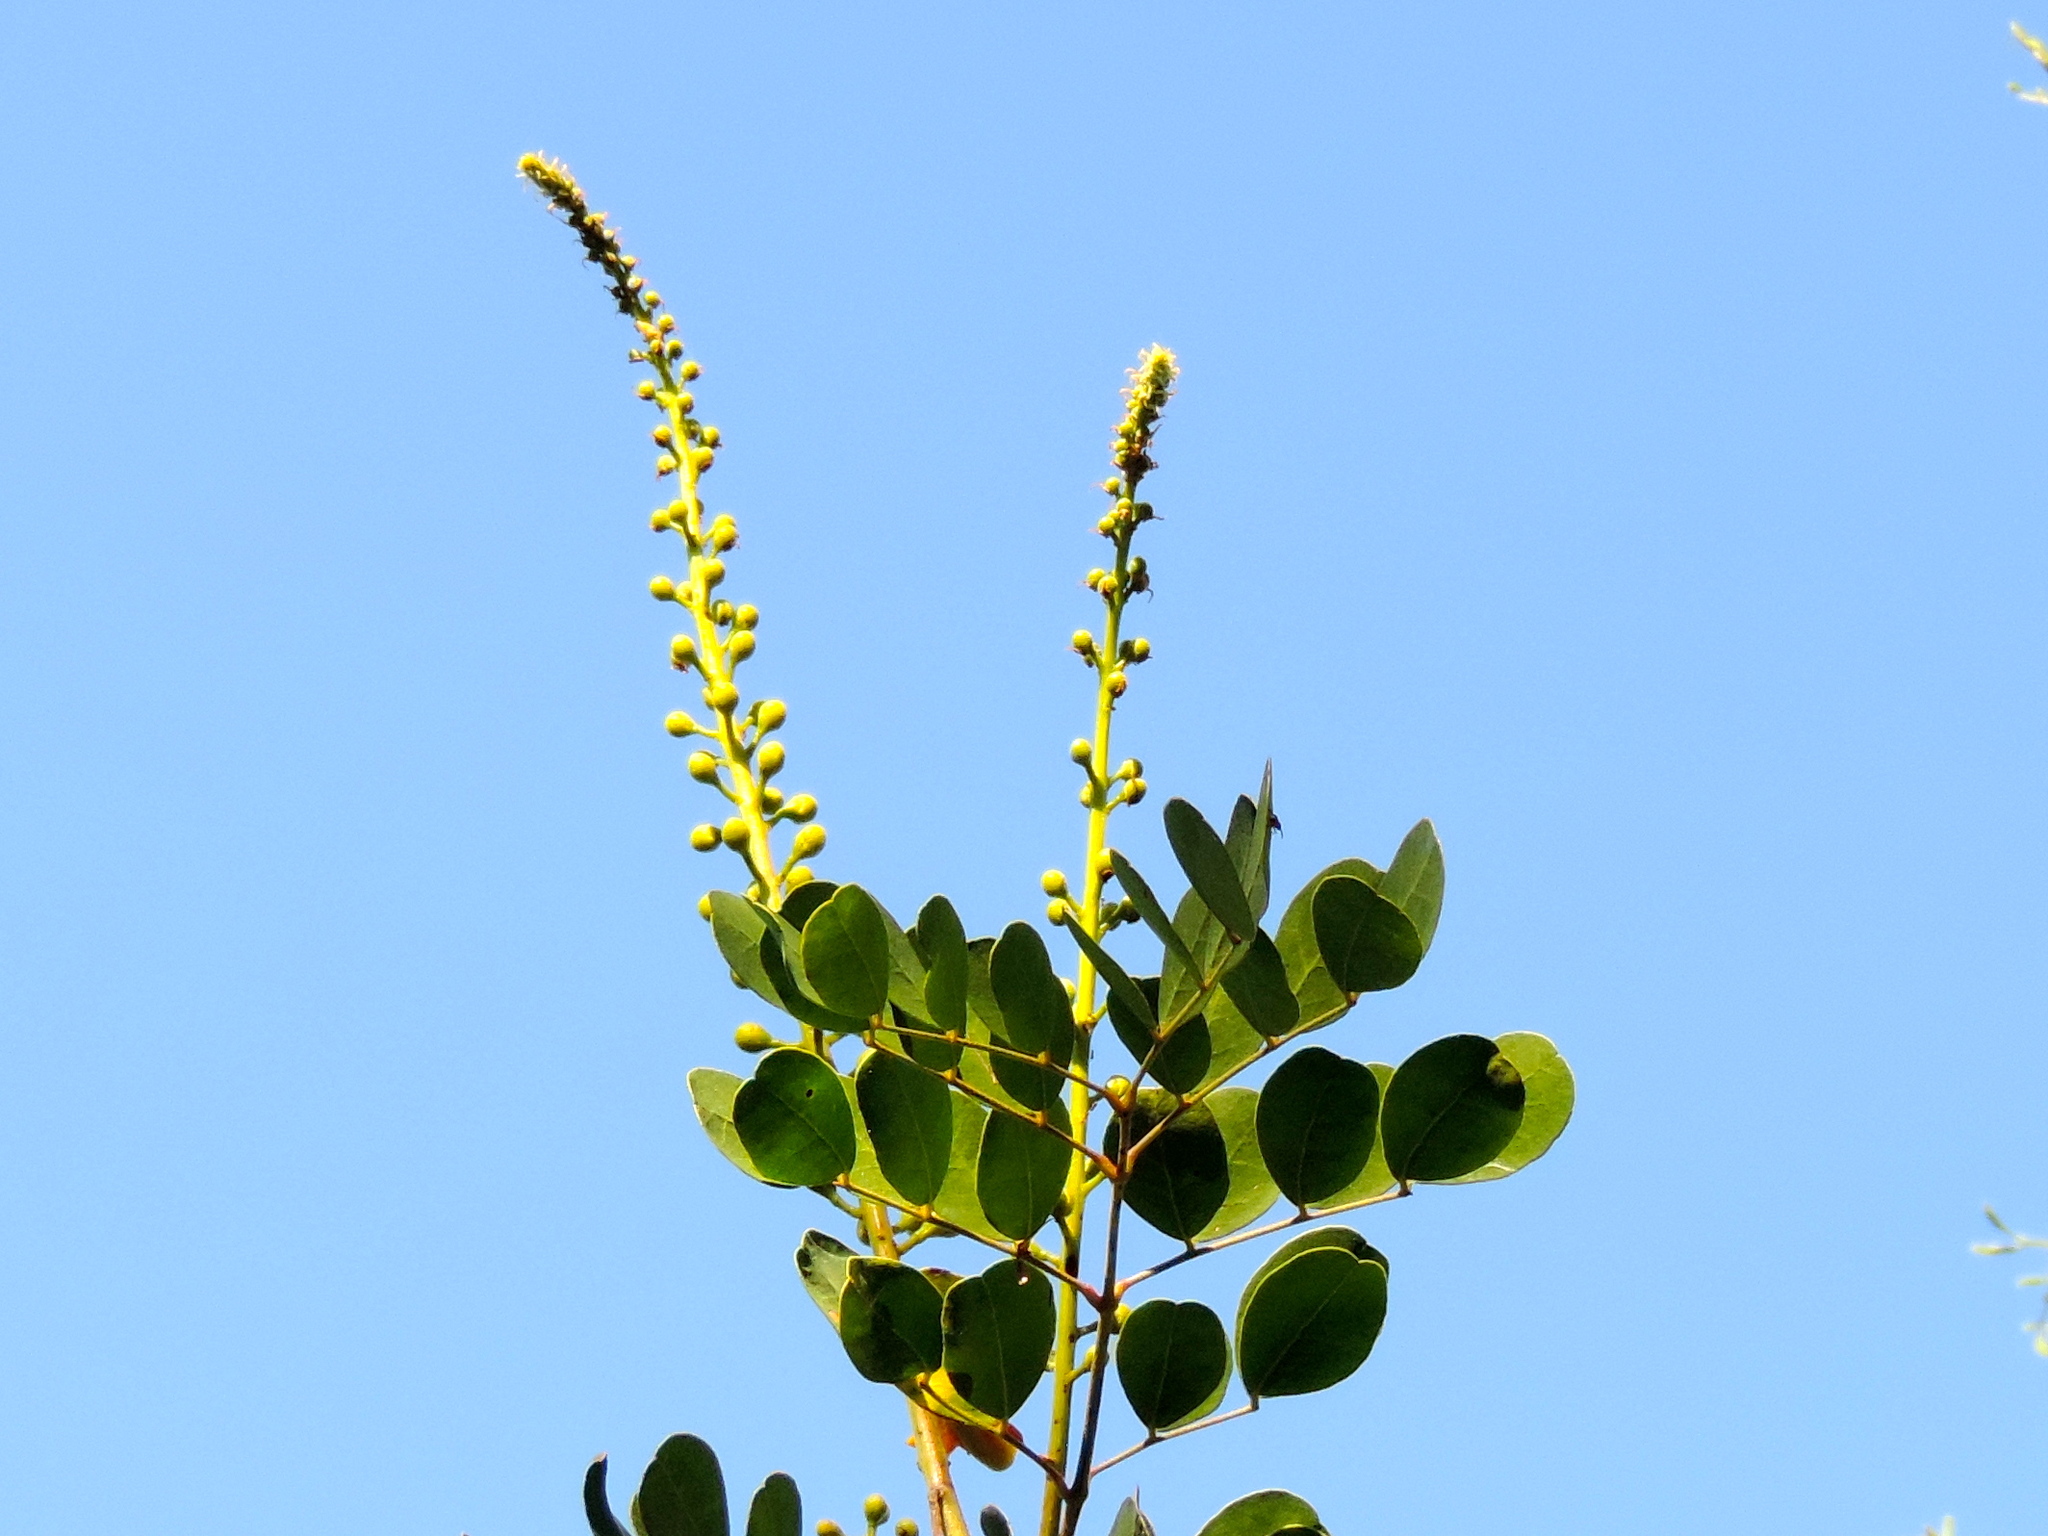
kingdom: Plantae
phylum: Tracheophyta
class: Magnoliopsida
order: Fabales
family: Fabaceae
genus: Tara
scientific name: Tara cacalaco
